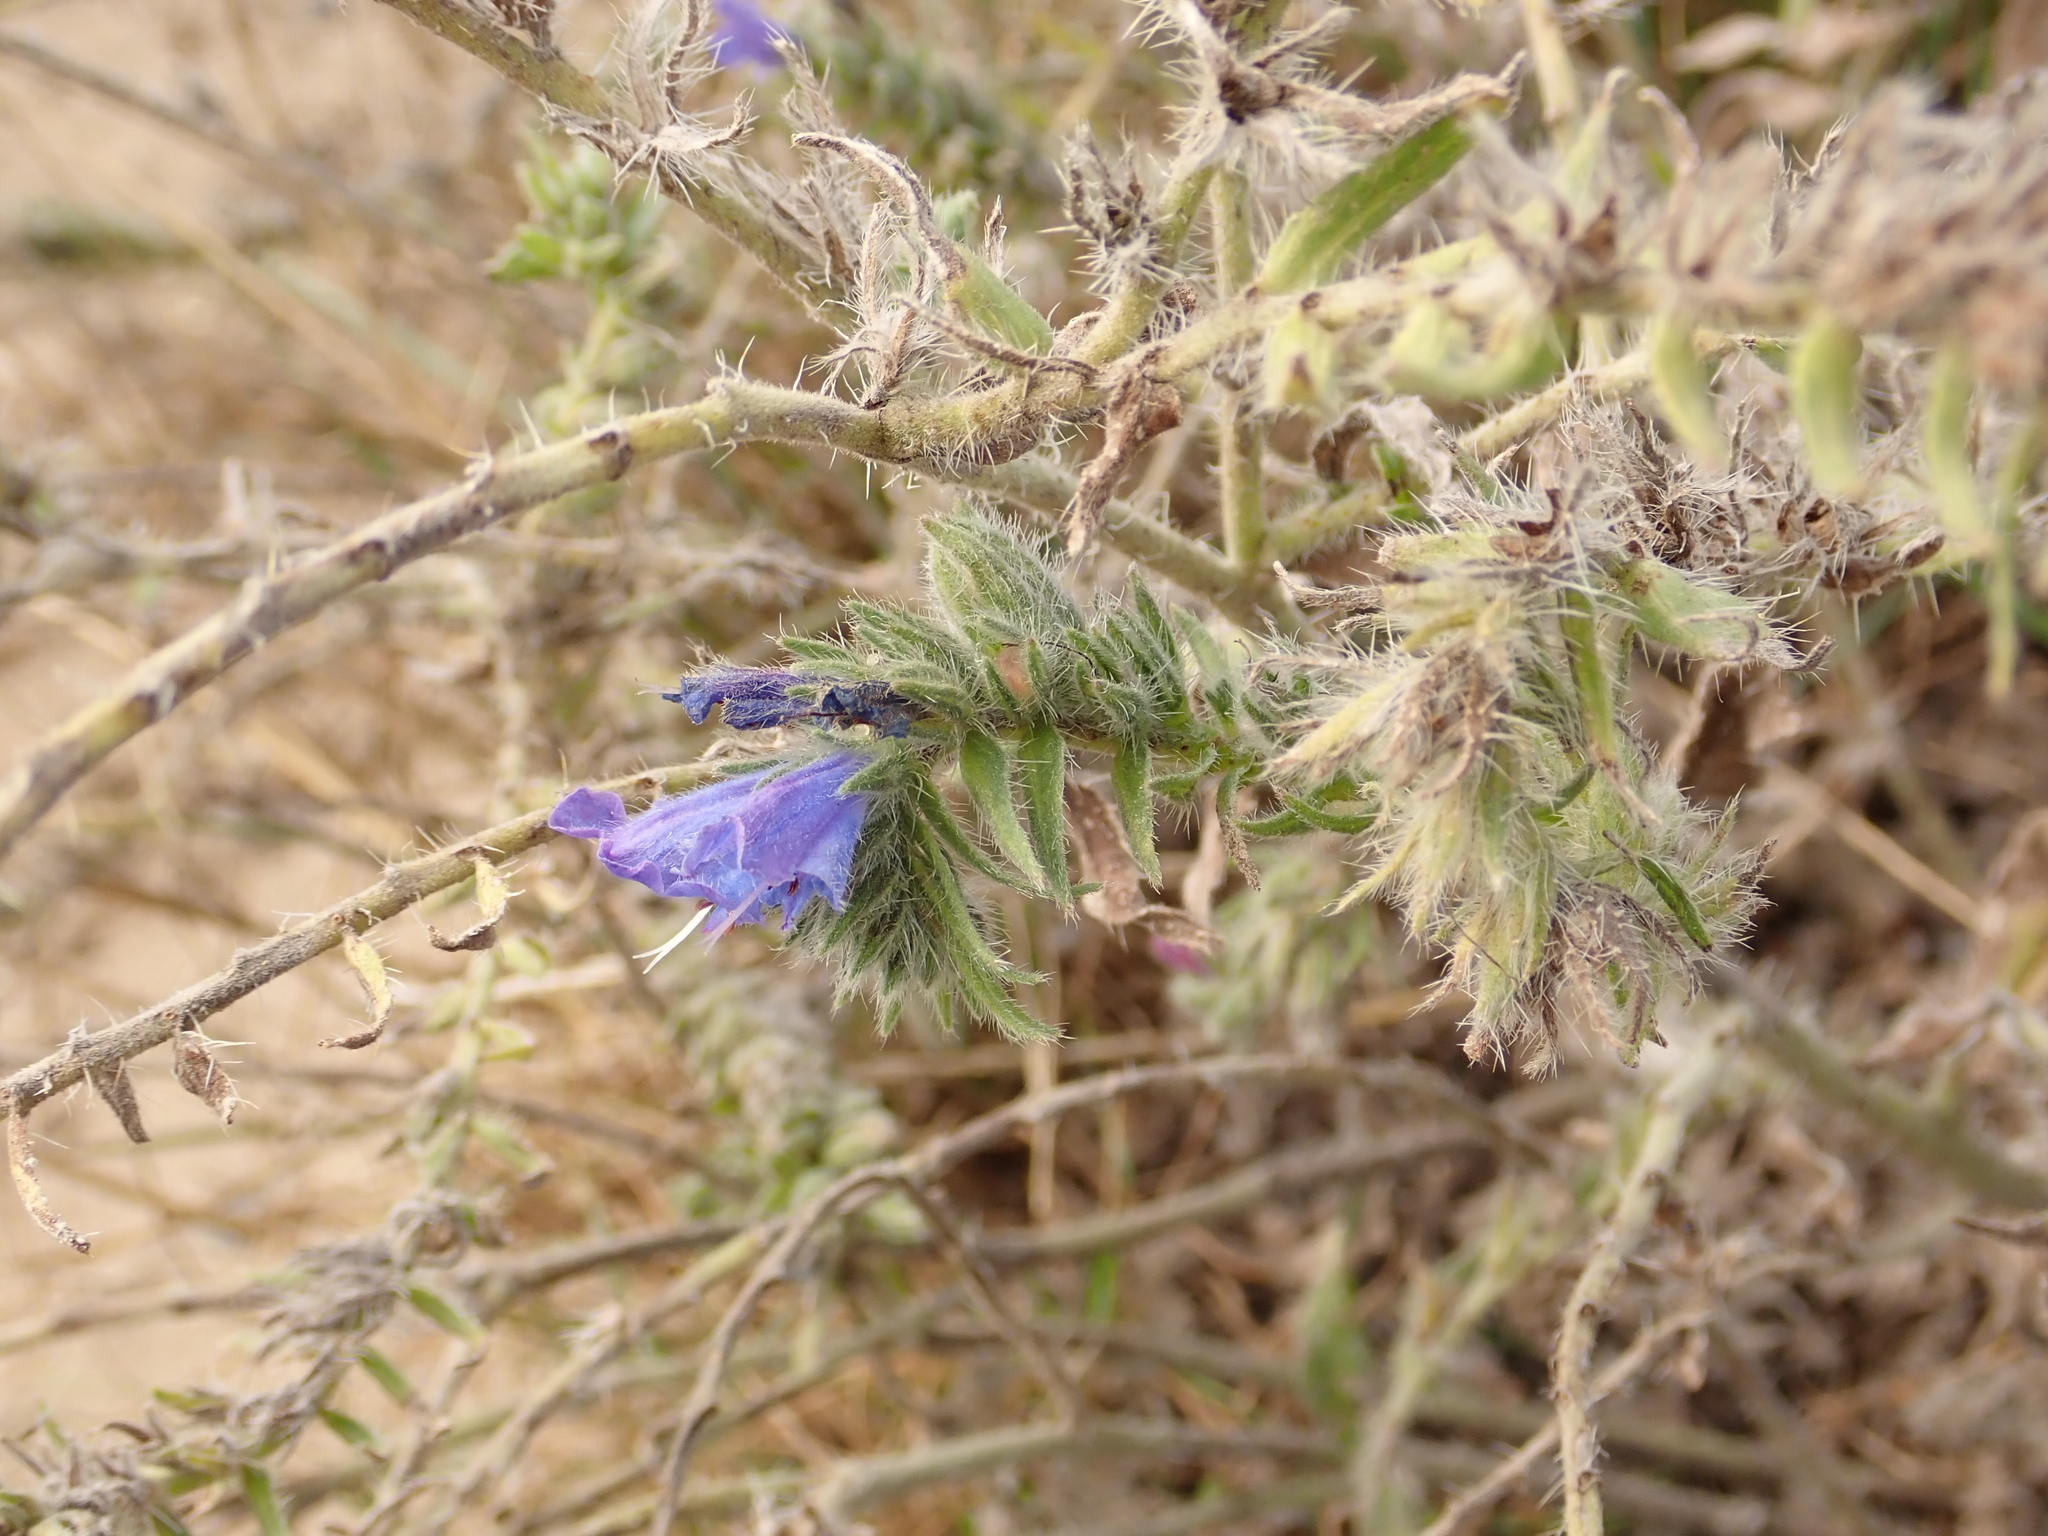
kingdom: Plantae
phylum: Tracheophyta
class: Magnoliopsida
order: Boraginales
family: Boraginaceae
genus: Echium
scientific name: Echium vulgare
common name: Common viper's bugloss
